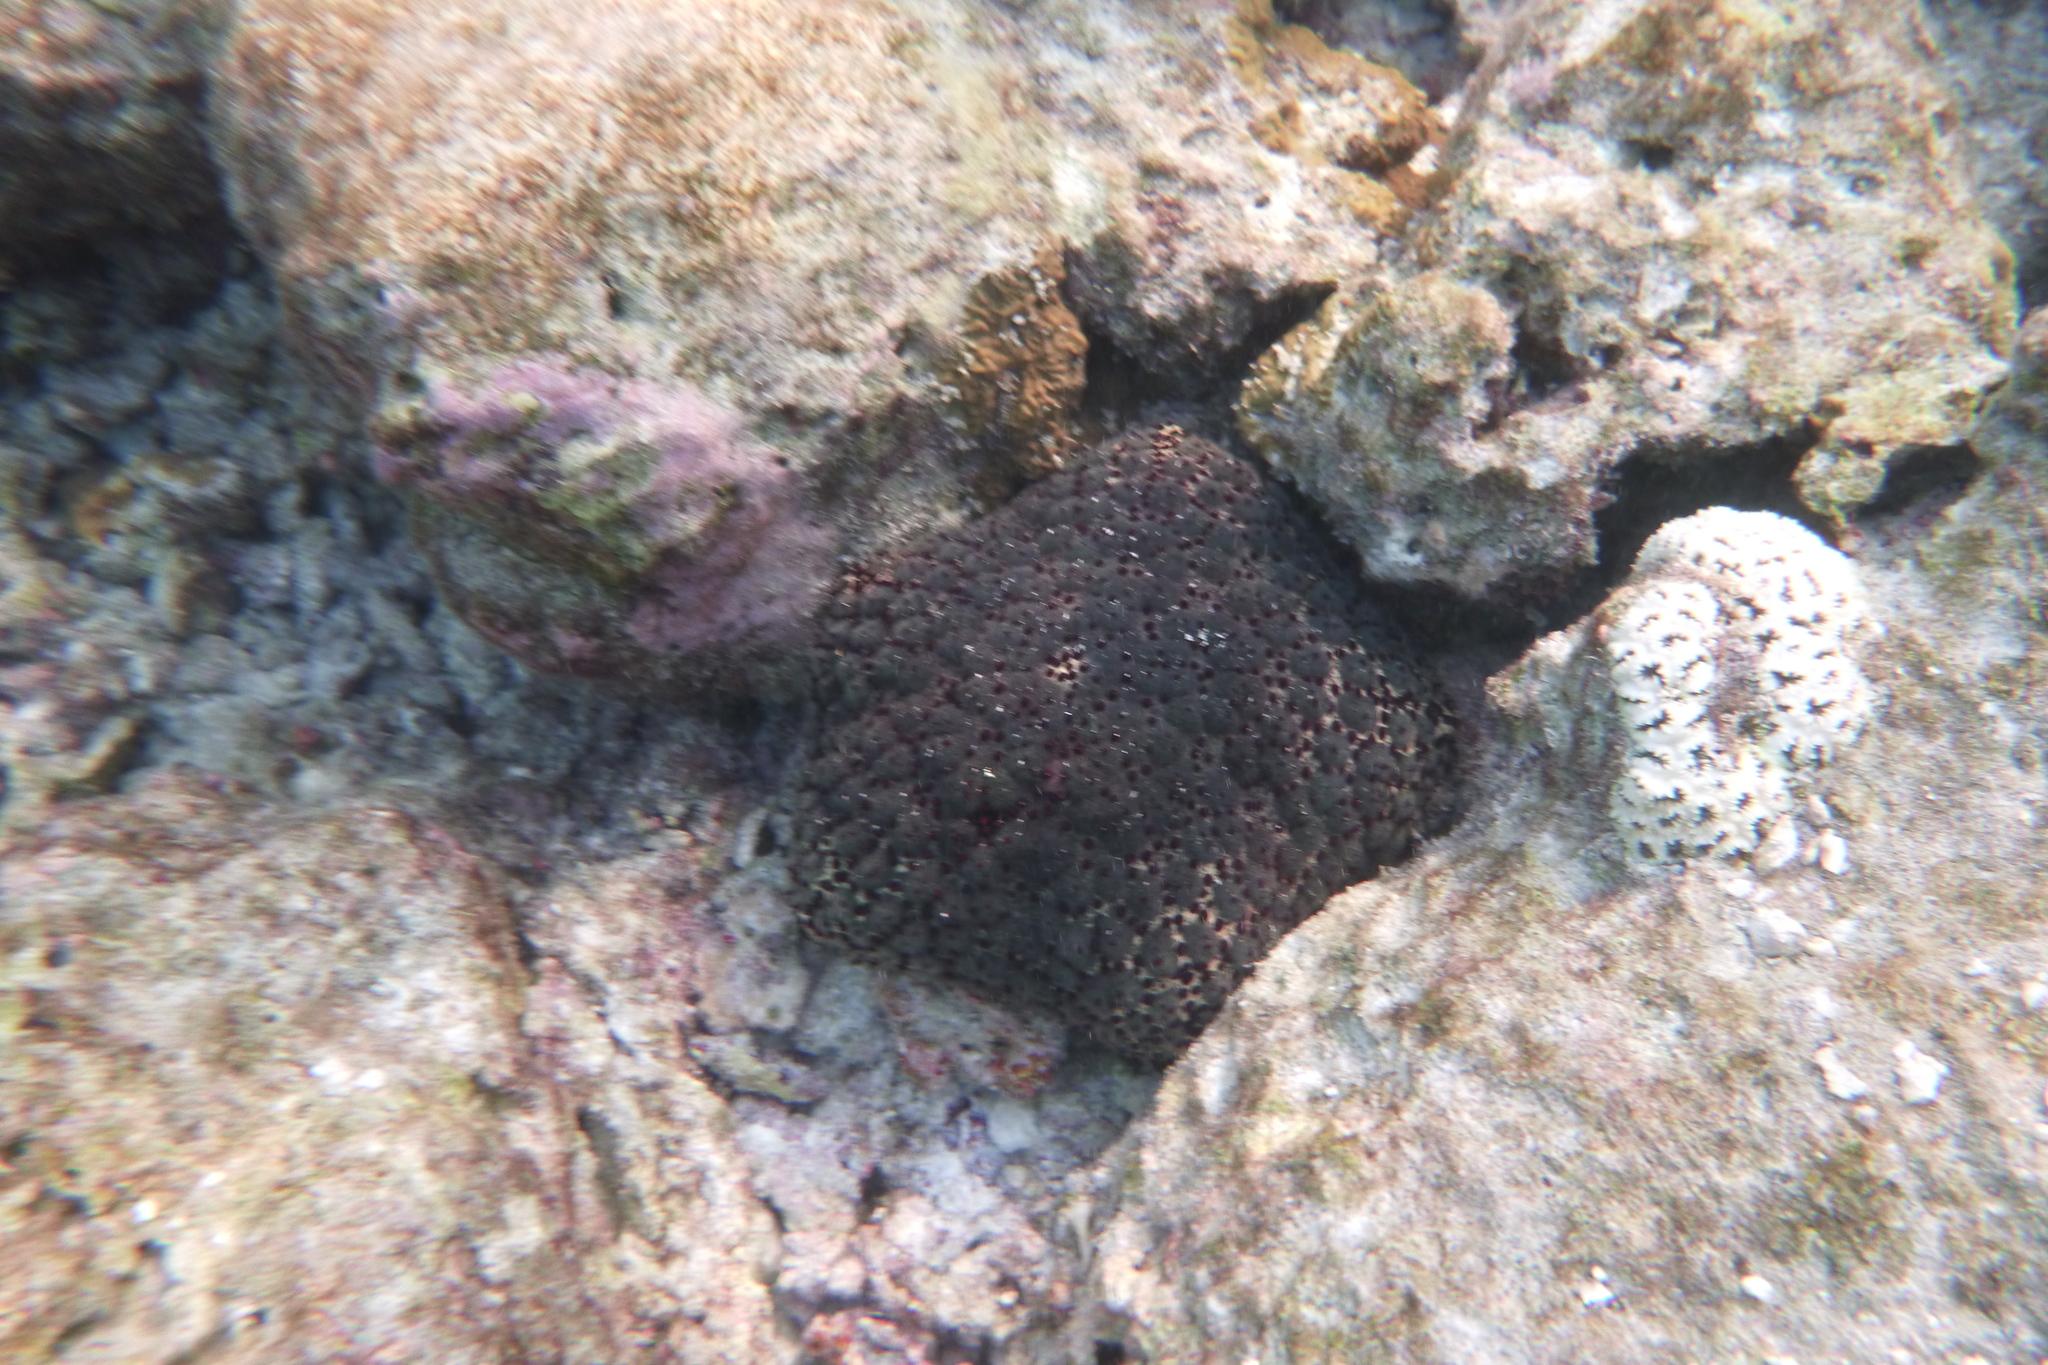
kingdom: Animalia
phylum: Echinodermata
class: Asteroidea
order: Valvatida
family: Oreasteridae
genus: Culcita
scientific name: Culcita schmideliana
